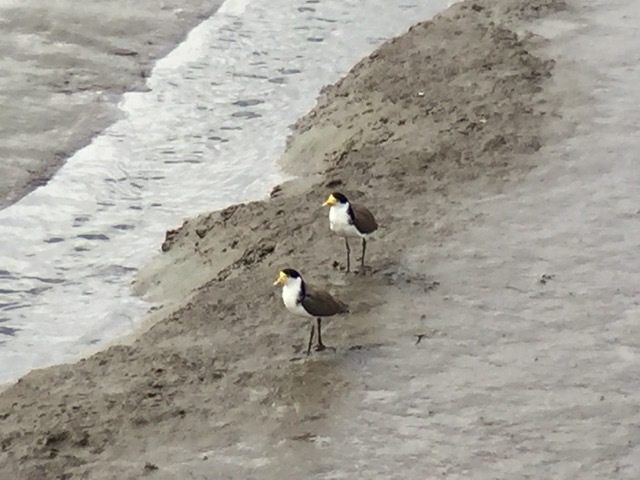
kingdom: Animalia
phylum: Chordata
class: Aves
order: Charadriiformes
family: Charadriidae
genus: Vanellus
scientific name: Vanellus miles
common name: Masked lapwing
